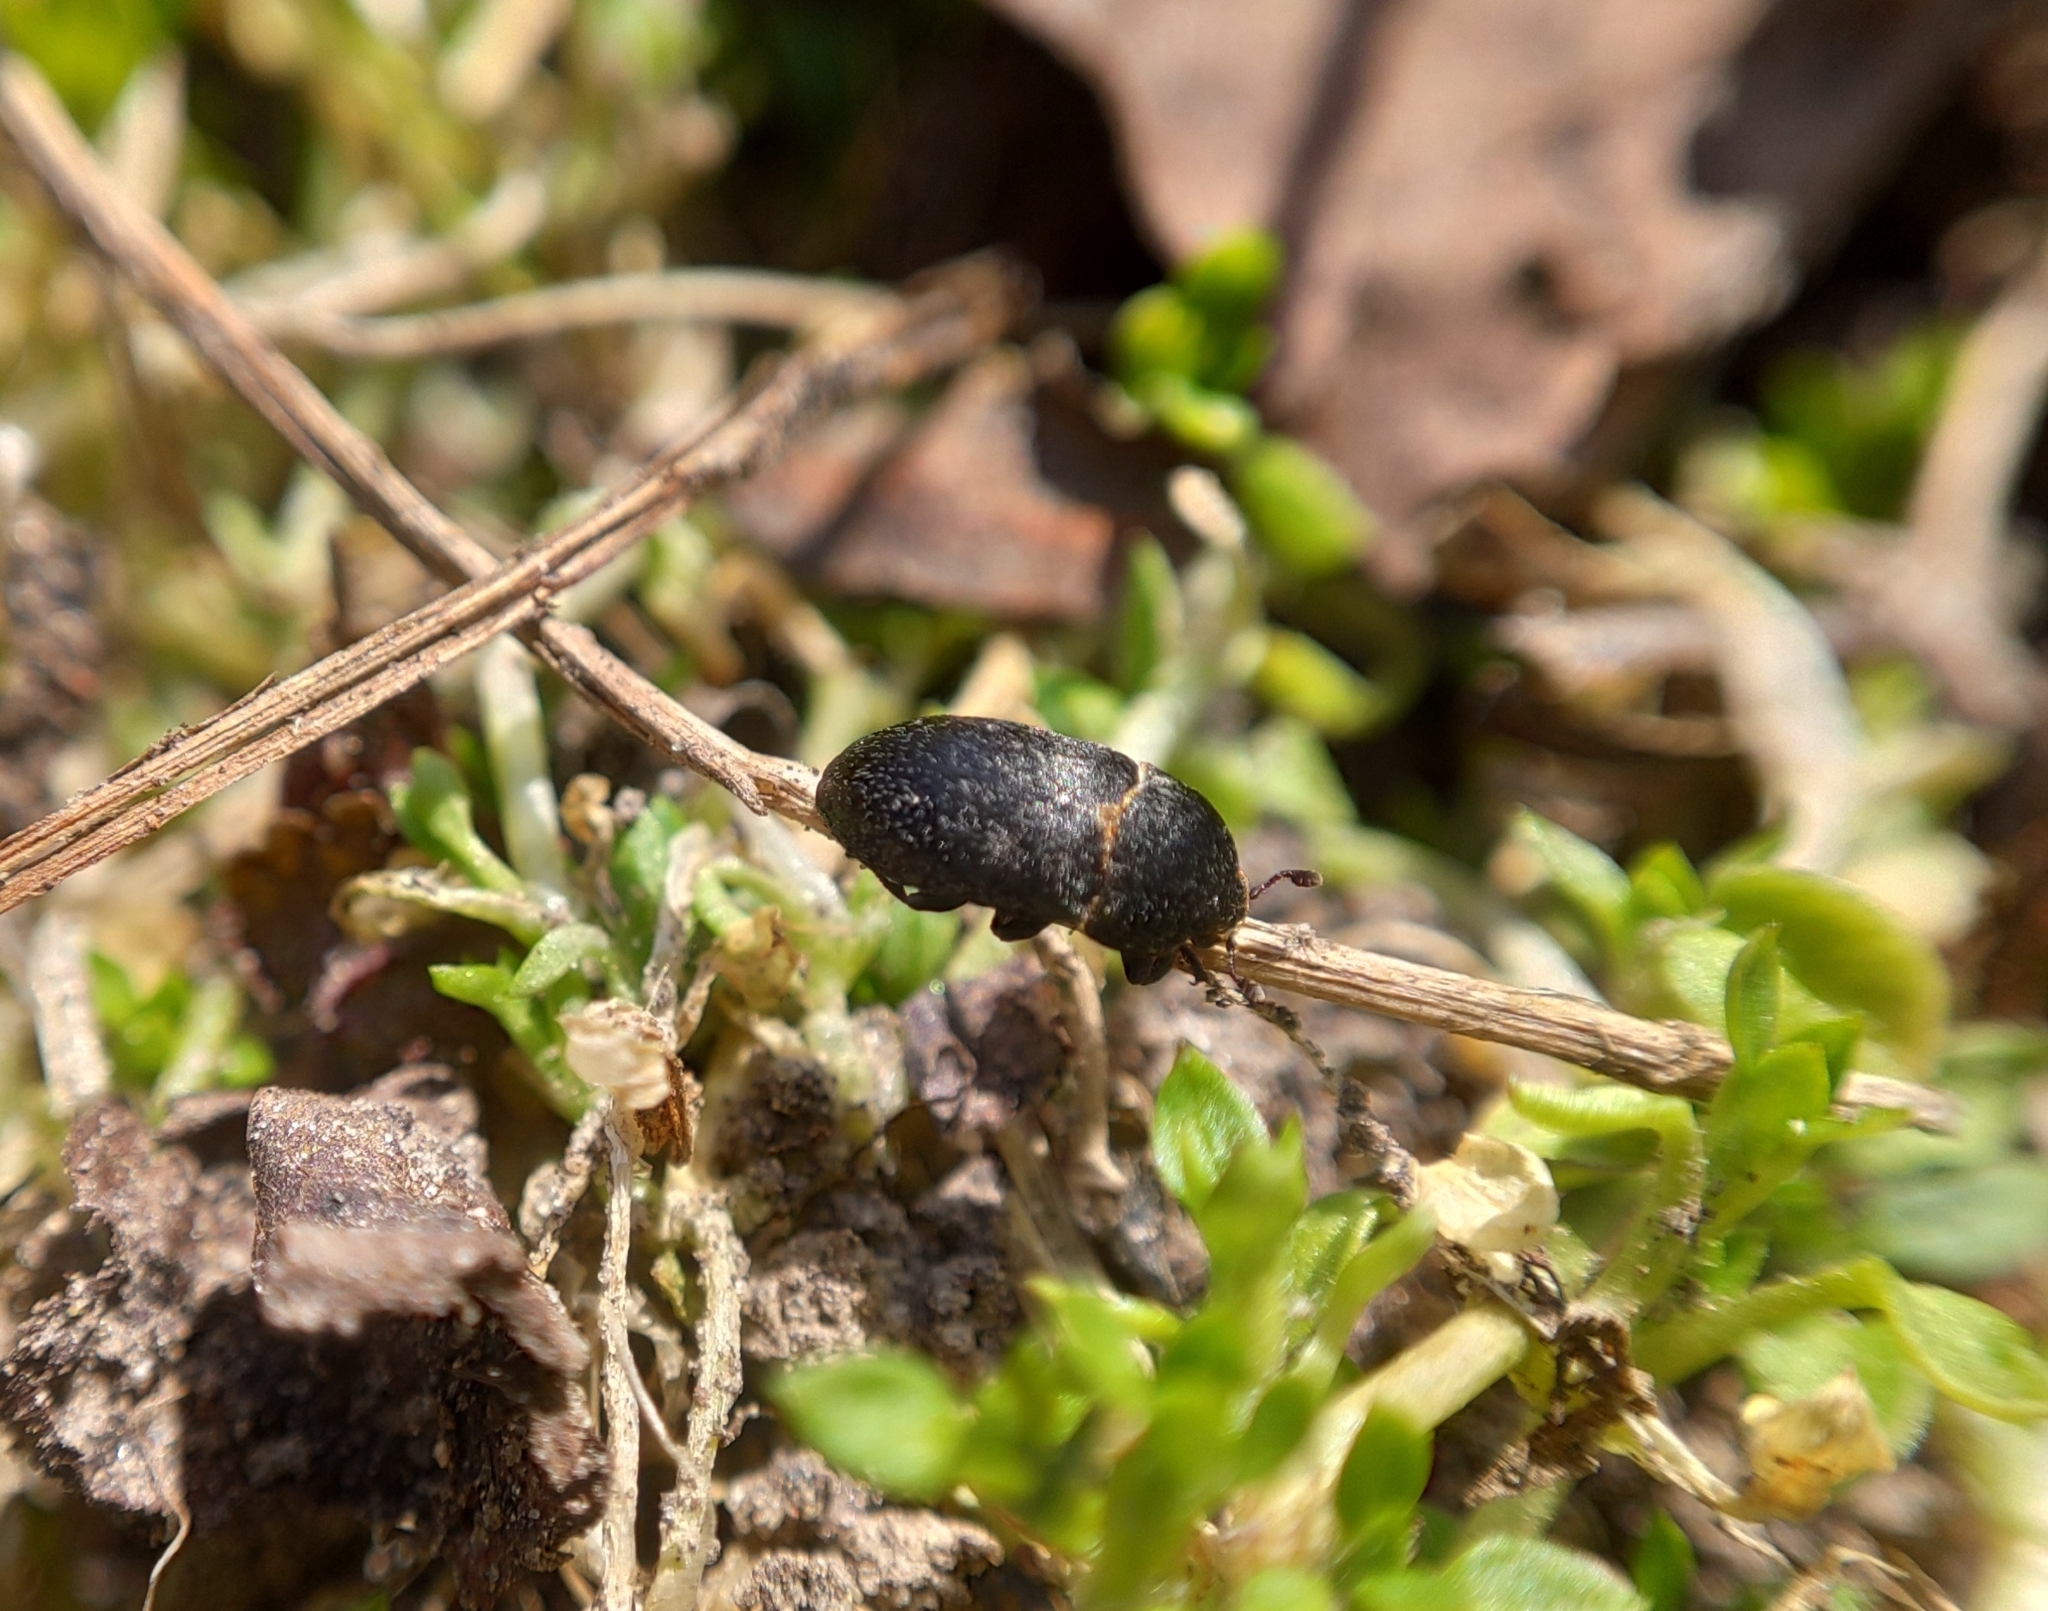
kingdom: Animalia
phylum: Arthropoda
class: Insecta
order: Coleoptera
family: Dermestidae
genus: Dermestes
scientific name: Dermestes laniarius
